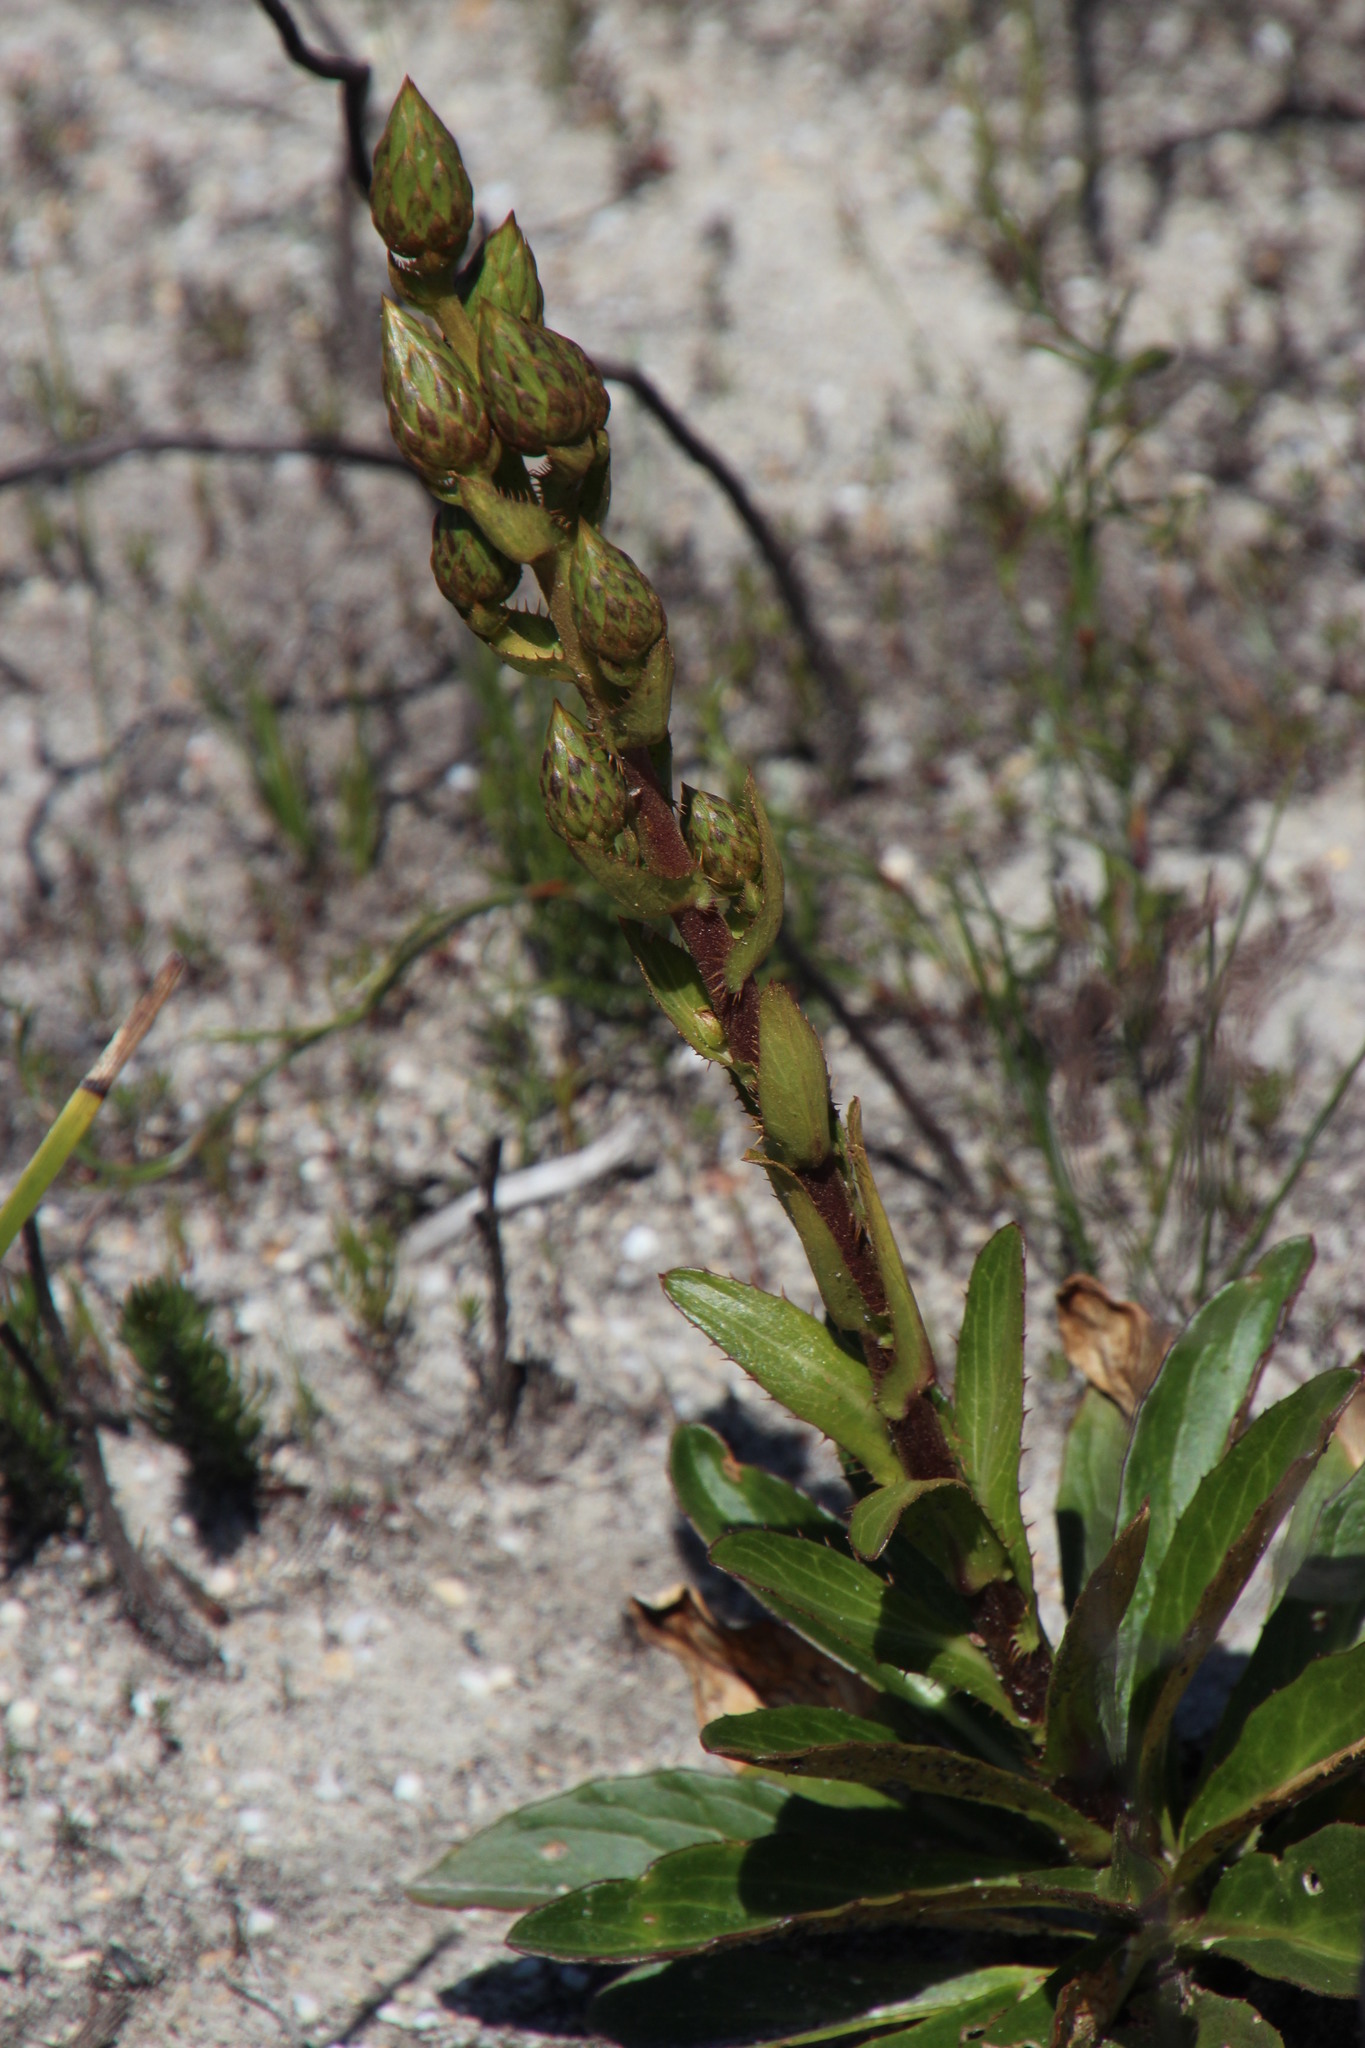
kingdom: Plantae
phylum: Tracheophyta
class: Magnoliopsida
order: Asterales
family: Asteraceae
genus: Berkheya
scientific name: Berkheya herbacea
